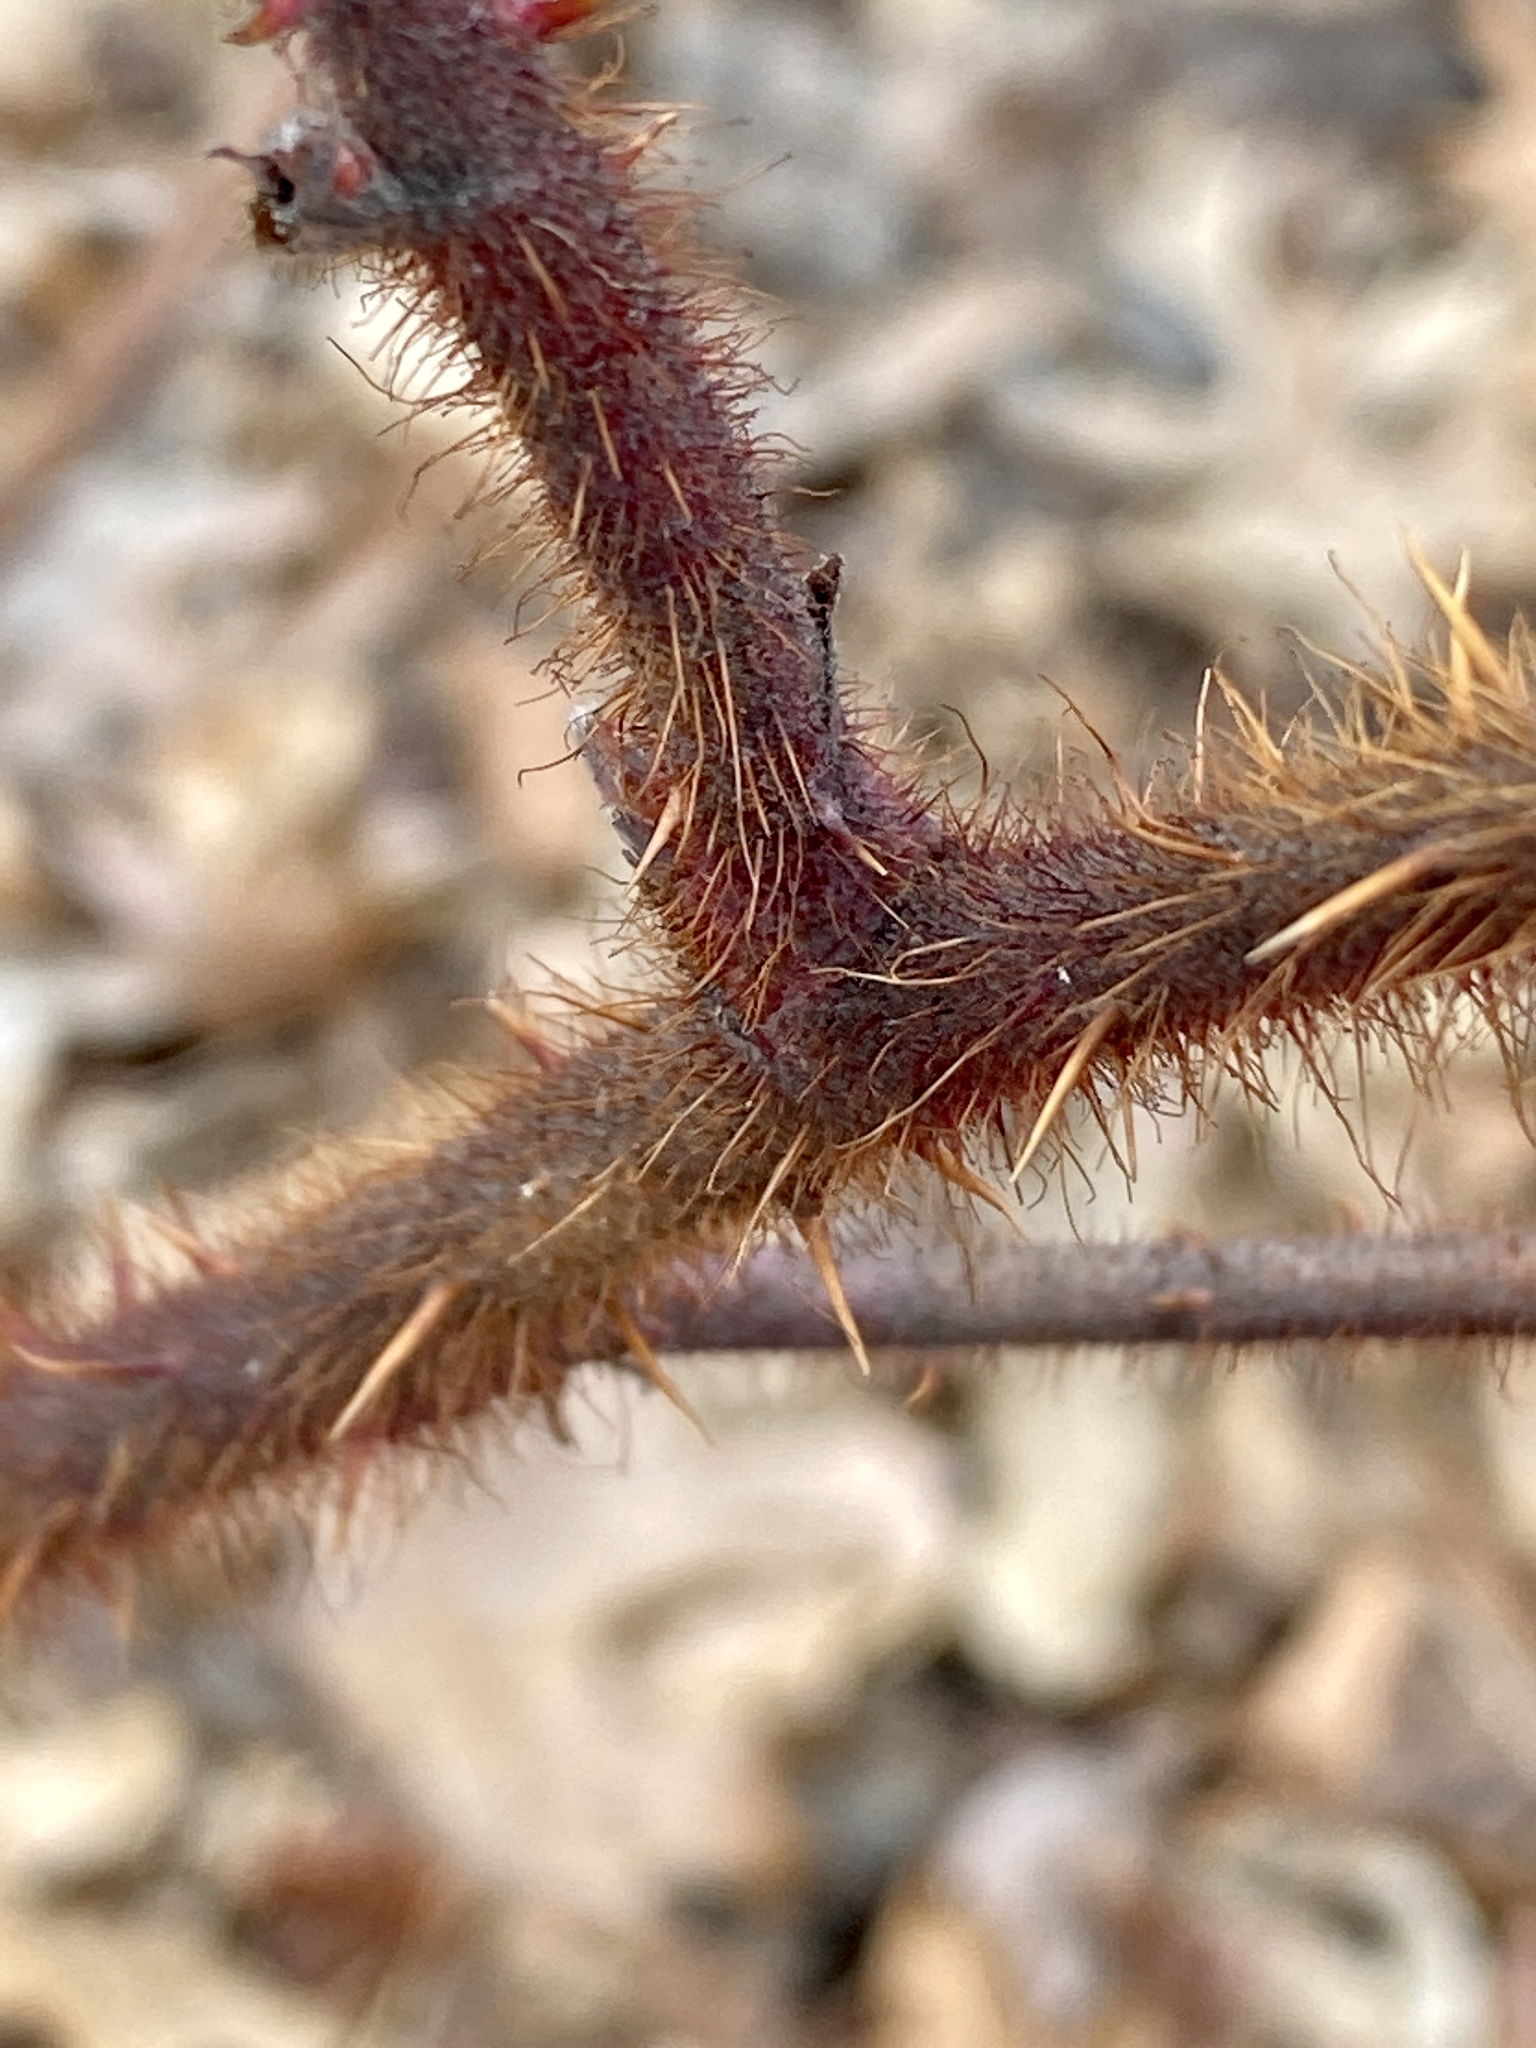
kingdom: Plantae
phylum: Tracheophyta
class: Magnoliopsida
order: Rosales
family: Rosaceae
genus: Rubus
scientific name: Rubus phoenicolasius
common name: Japanese wineberry
